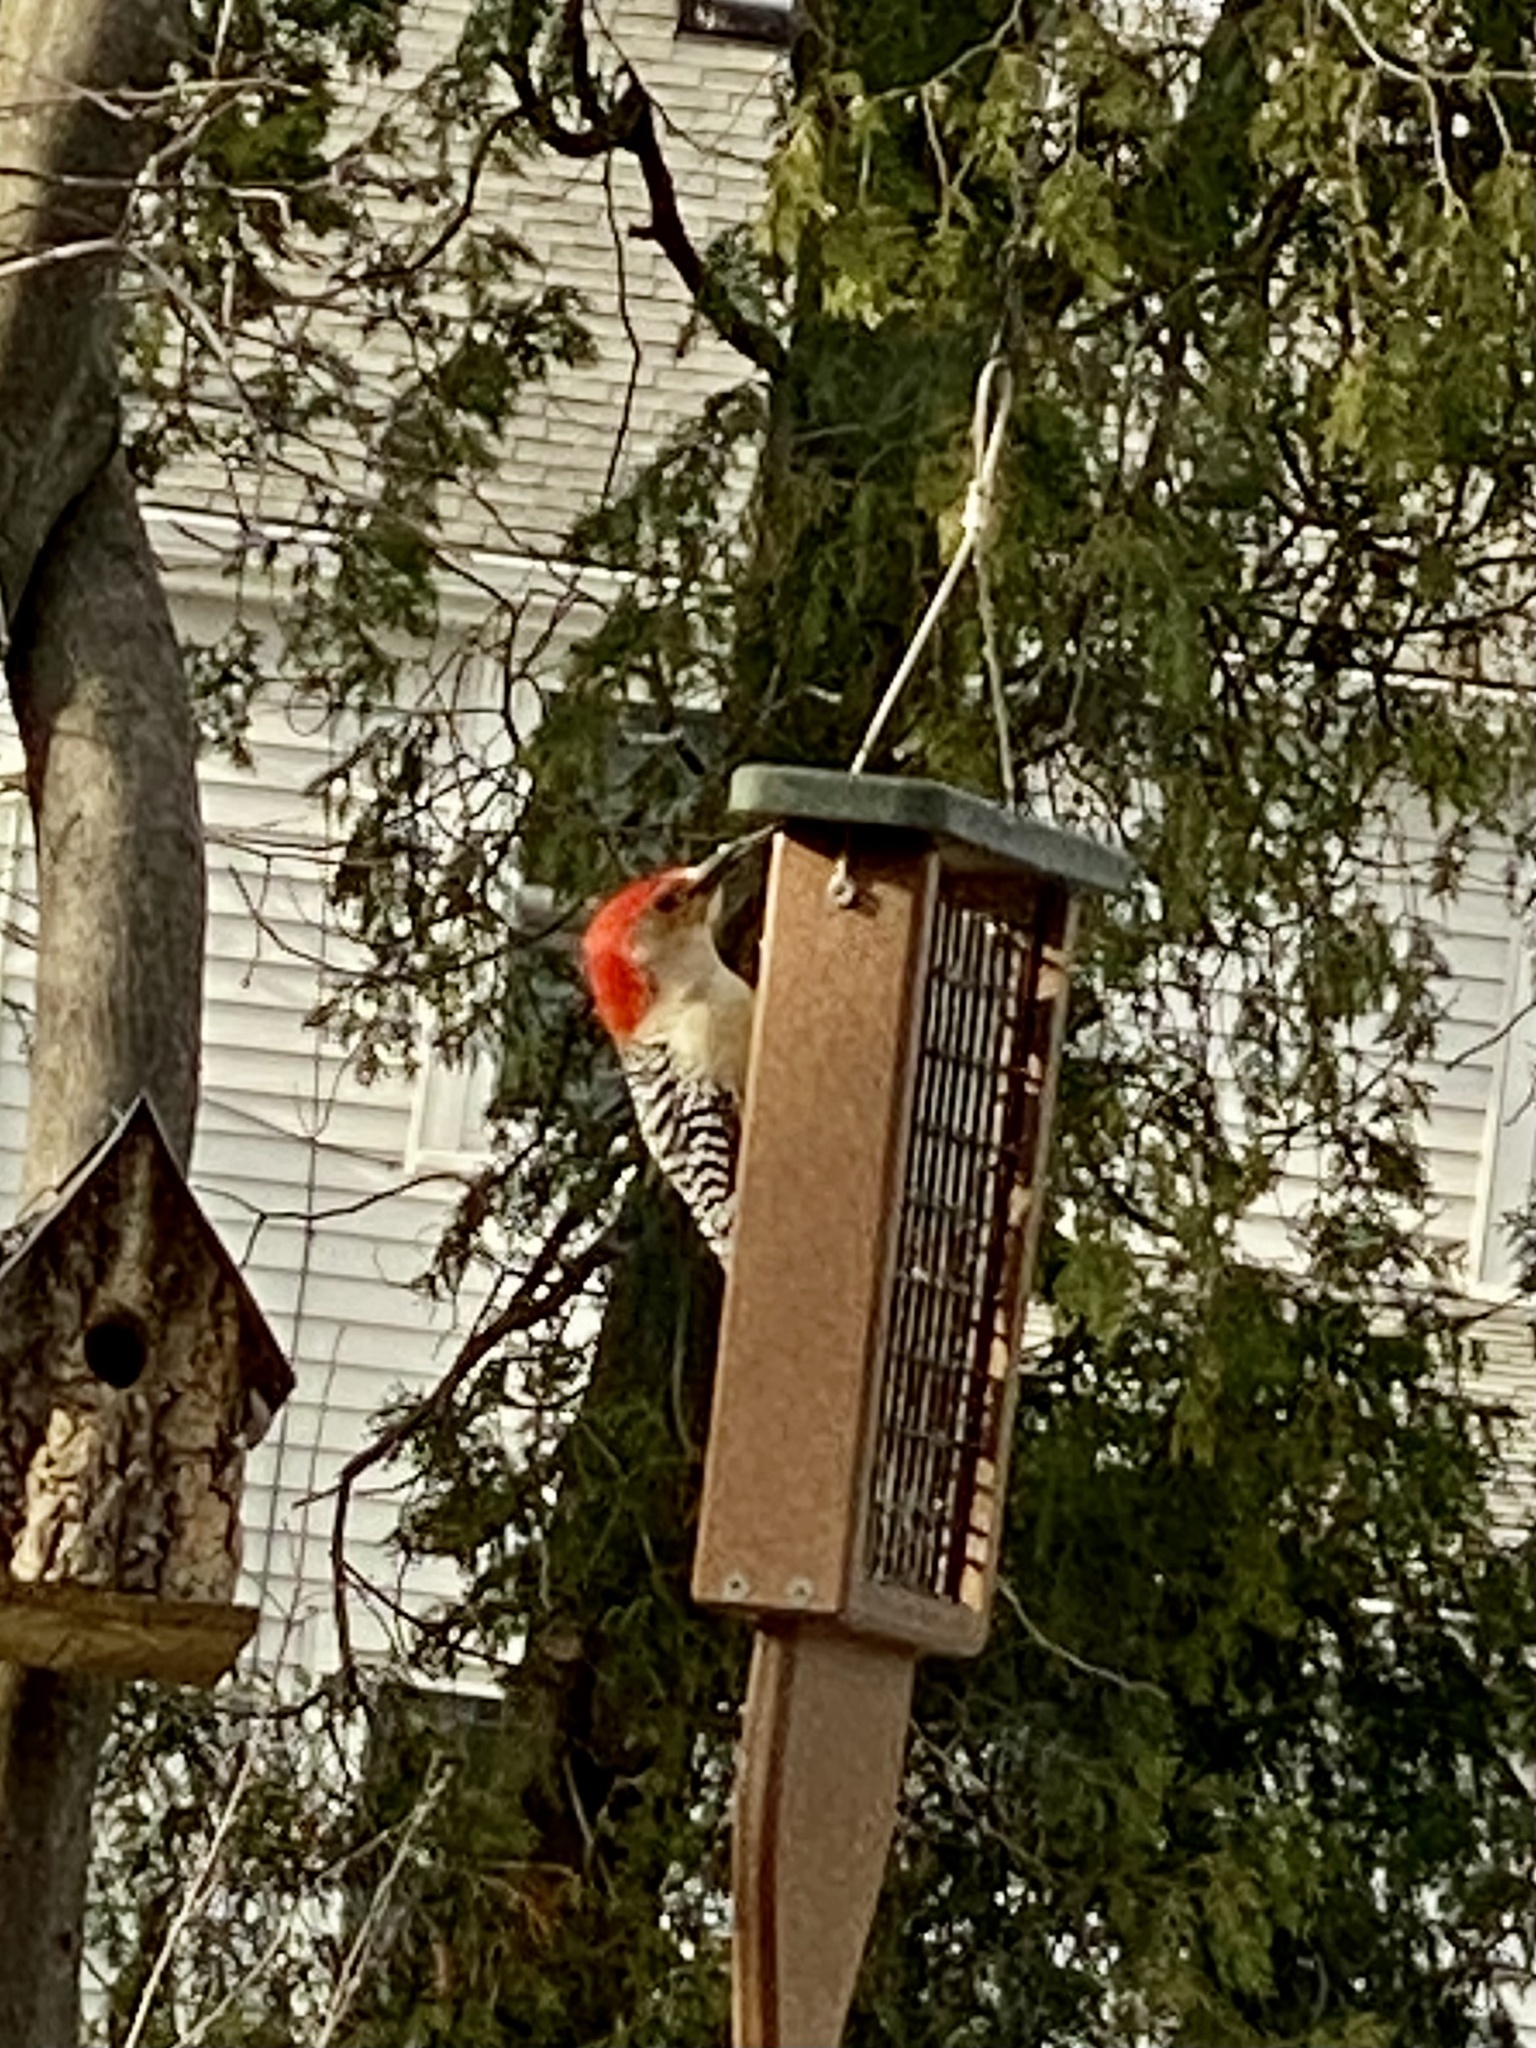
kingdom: Animalia
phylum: Chordata
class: Aves
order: Piciformes
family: Picidae
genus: Melanerpes
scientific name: Melanerpes carolinus
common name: Red-bellied woodpecker
